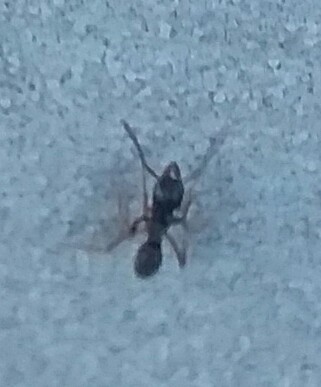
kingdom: Animalia
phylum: Arthropoda
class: Insecta
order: Hymenoptera
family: Formicidae
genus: Pachycondyla
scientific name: Pachycondyla chinensis
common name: Asian needle ant
